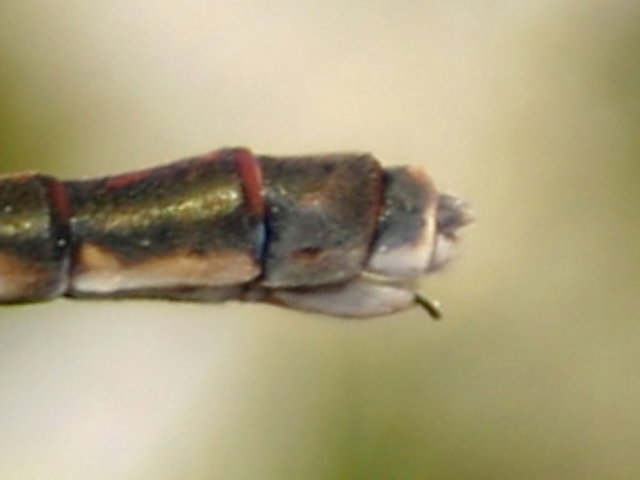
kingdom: Animalia
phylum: Arthropoda
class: Insecta
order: Odonata
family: Coenagrionidae
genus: Xanthocnemis
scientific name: Xanthocnemis zealandica
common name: Common redcoat damselfly
